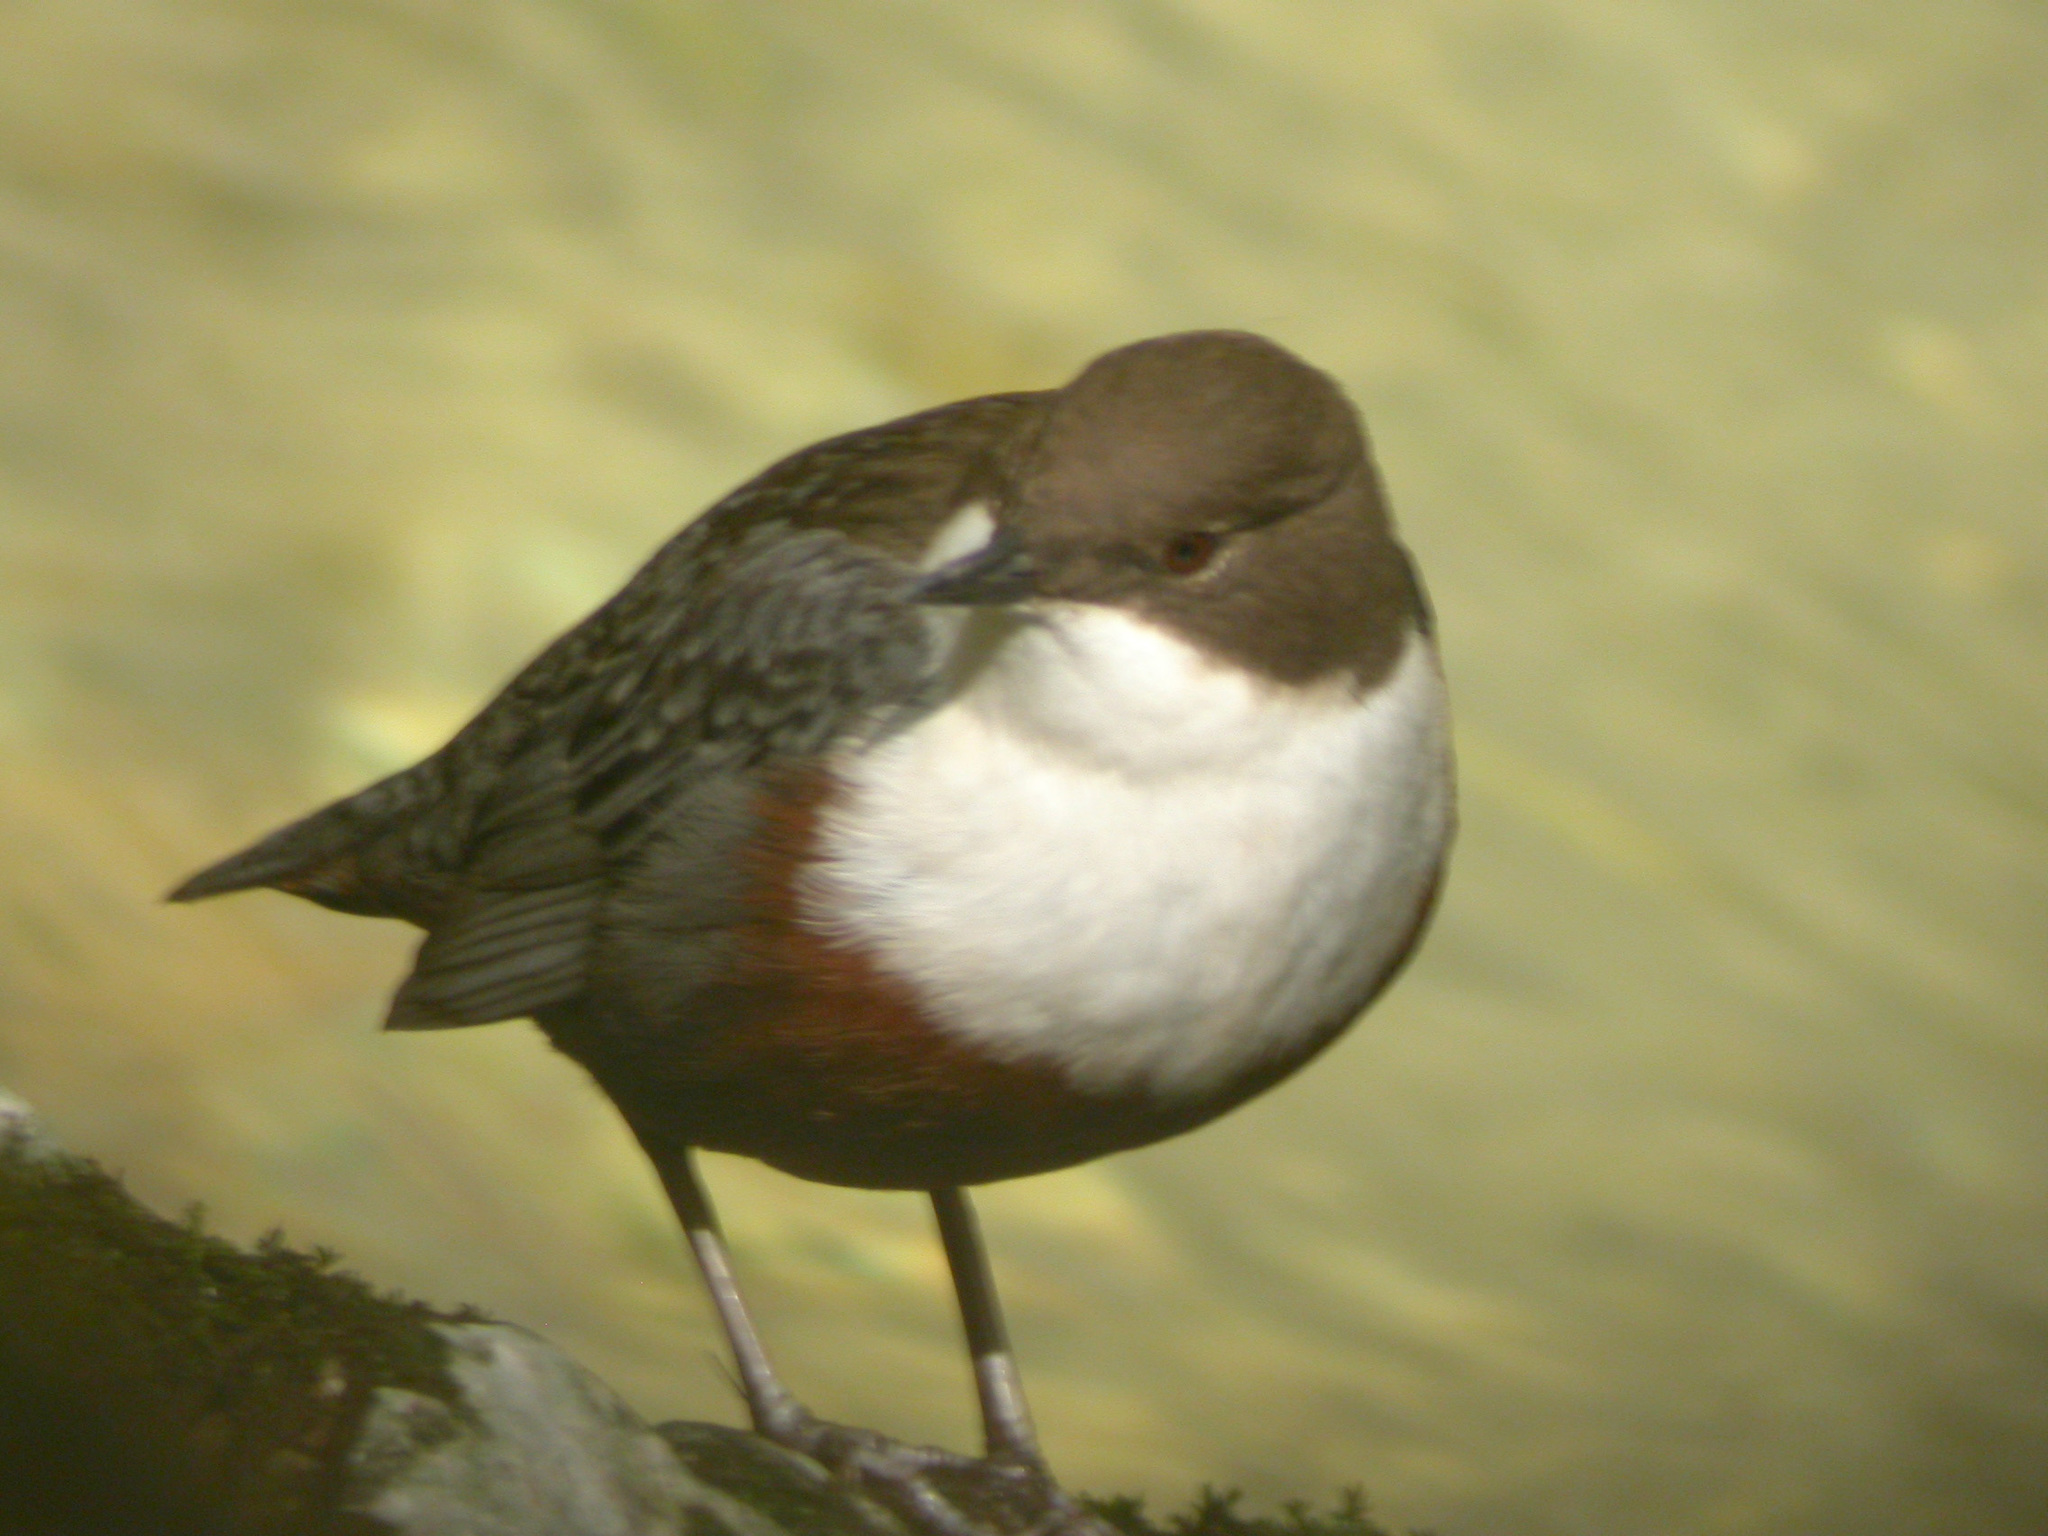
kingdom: Animalia
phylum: Chordata
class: Aves
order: Passeriformes
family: Cinclidae
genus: Cinclus
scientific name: Cinclus cinclus
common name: White-throated dipper
